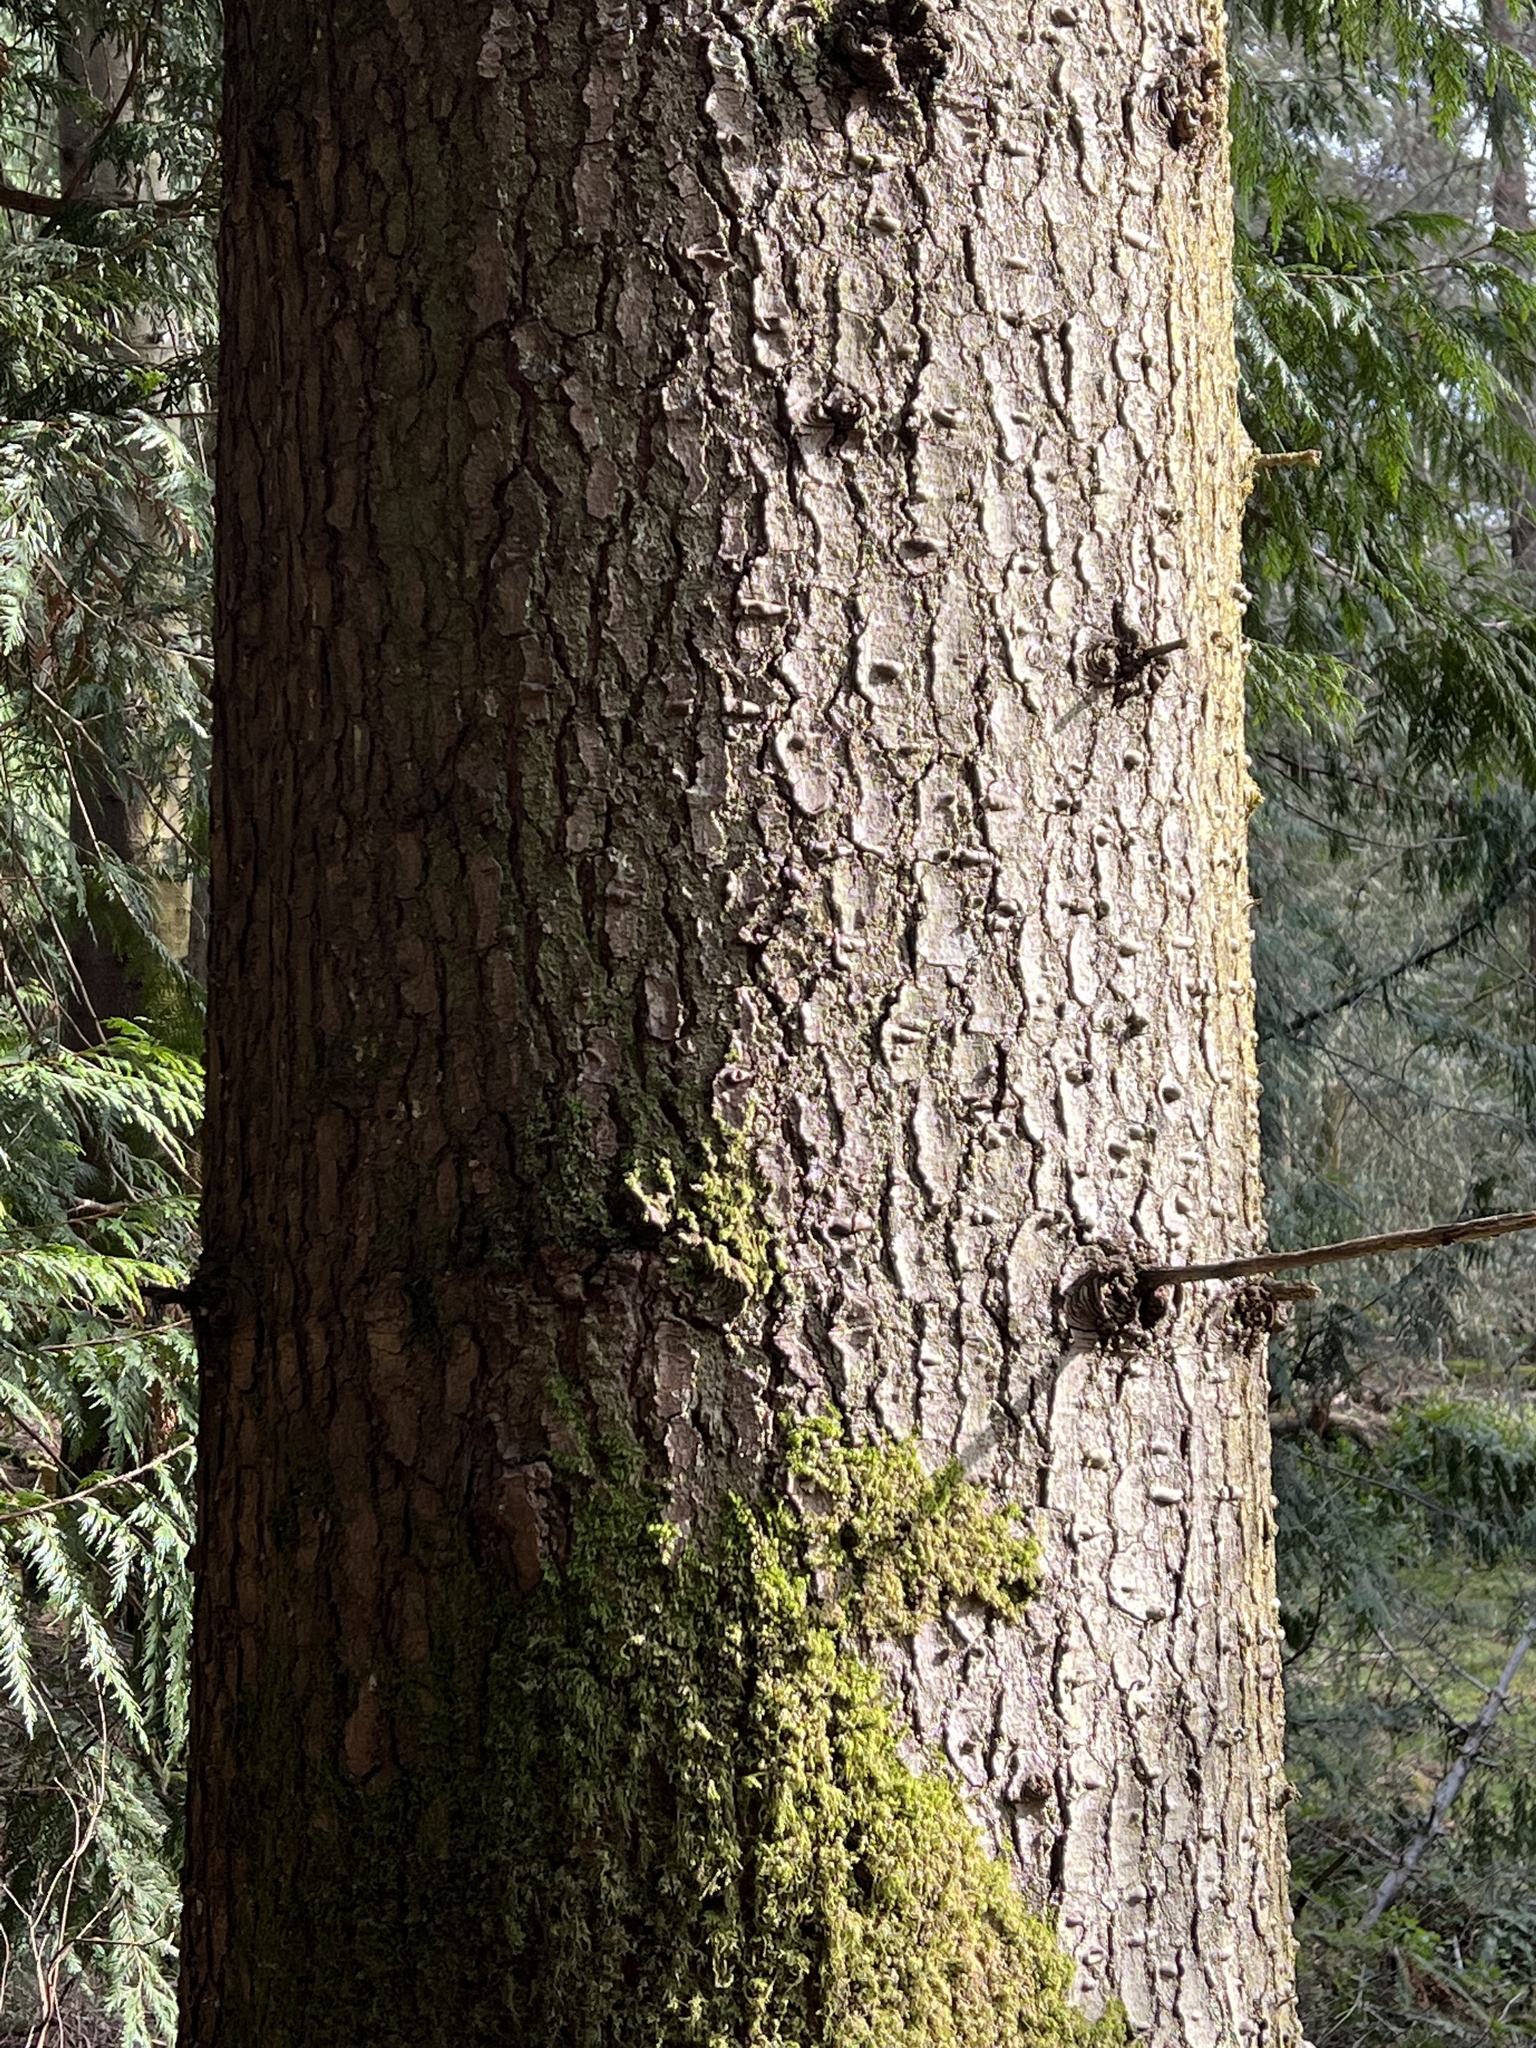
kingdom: Plantae
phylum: Tracheophyta
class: Pinopsida
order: Pinales
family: Pinaceae
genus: Tsuga
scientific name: Tsuga heterophylla
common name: Western hemlock
